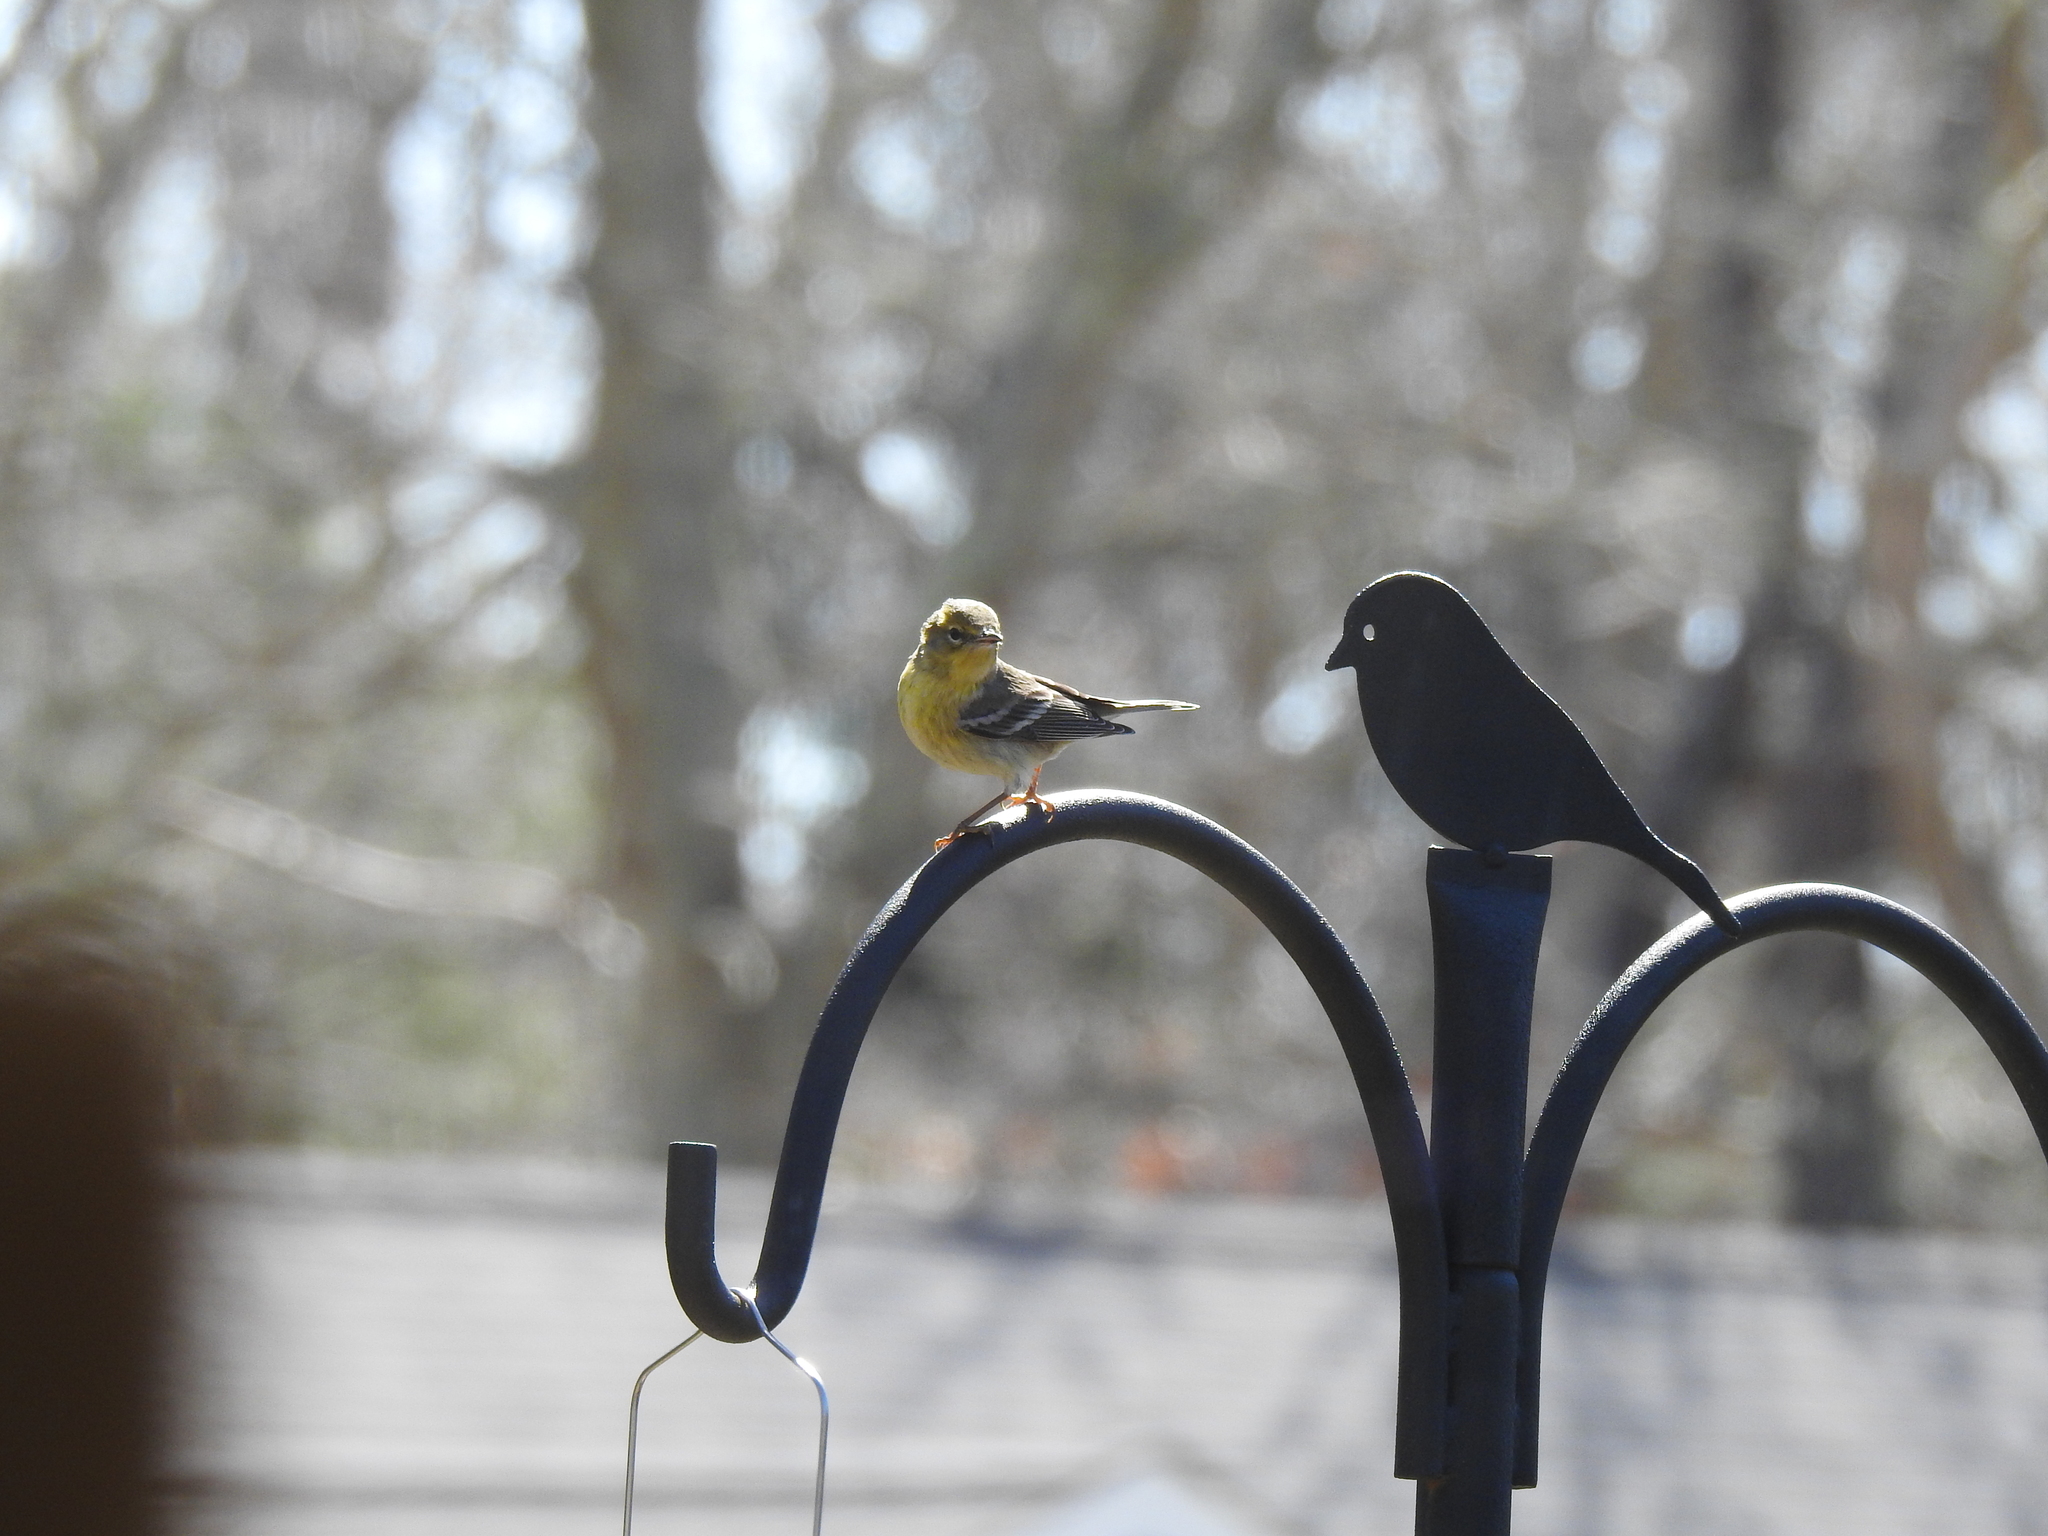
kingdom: Animalia
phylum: Chordata
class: Aves
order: Passeriformes
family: Parulidae
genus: Setophaga
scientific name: Setophaga pinus
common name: Pine warbler
